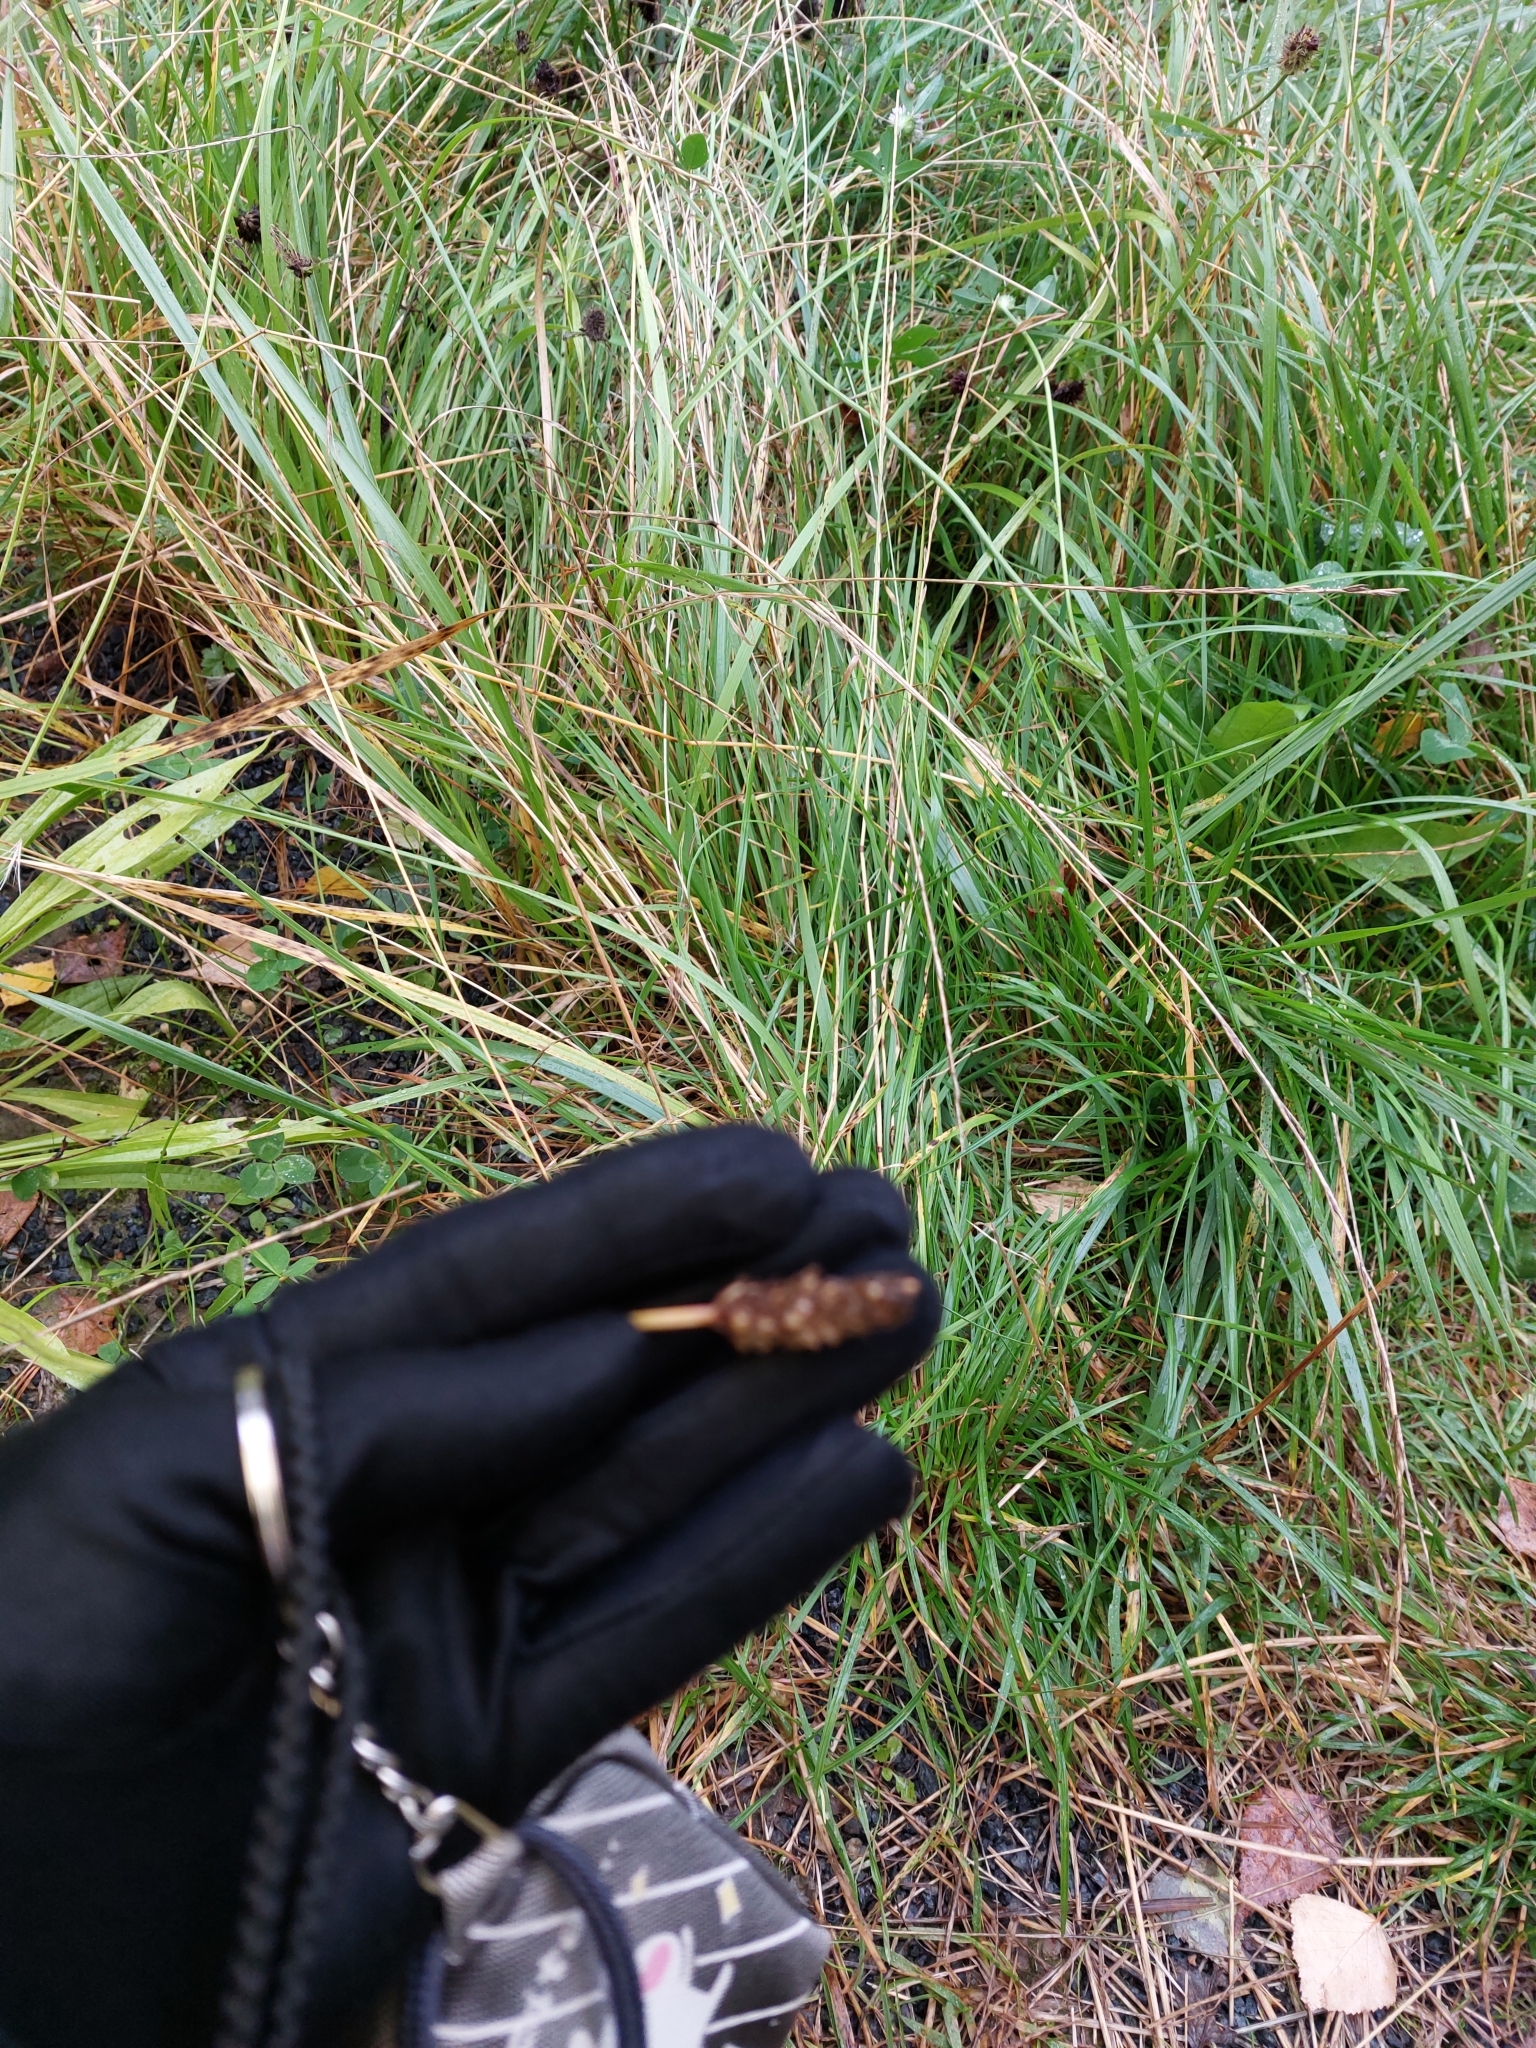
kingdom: Plantae
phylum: Tracheophyta
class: Magnoliopsida
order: Lamiales
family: Plantaginaceae
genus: Plantago
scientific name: Plantago media
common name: Hoary plantain
